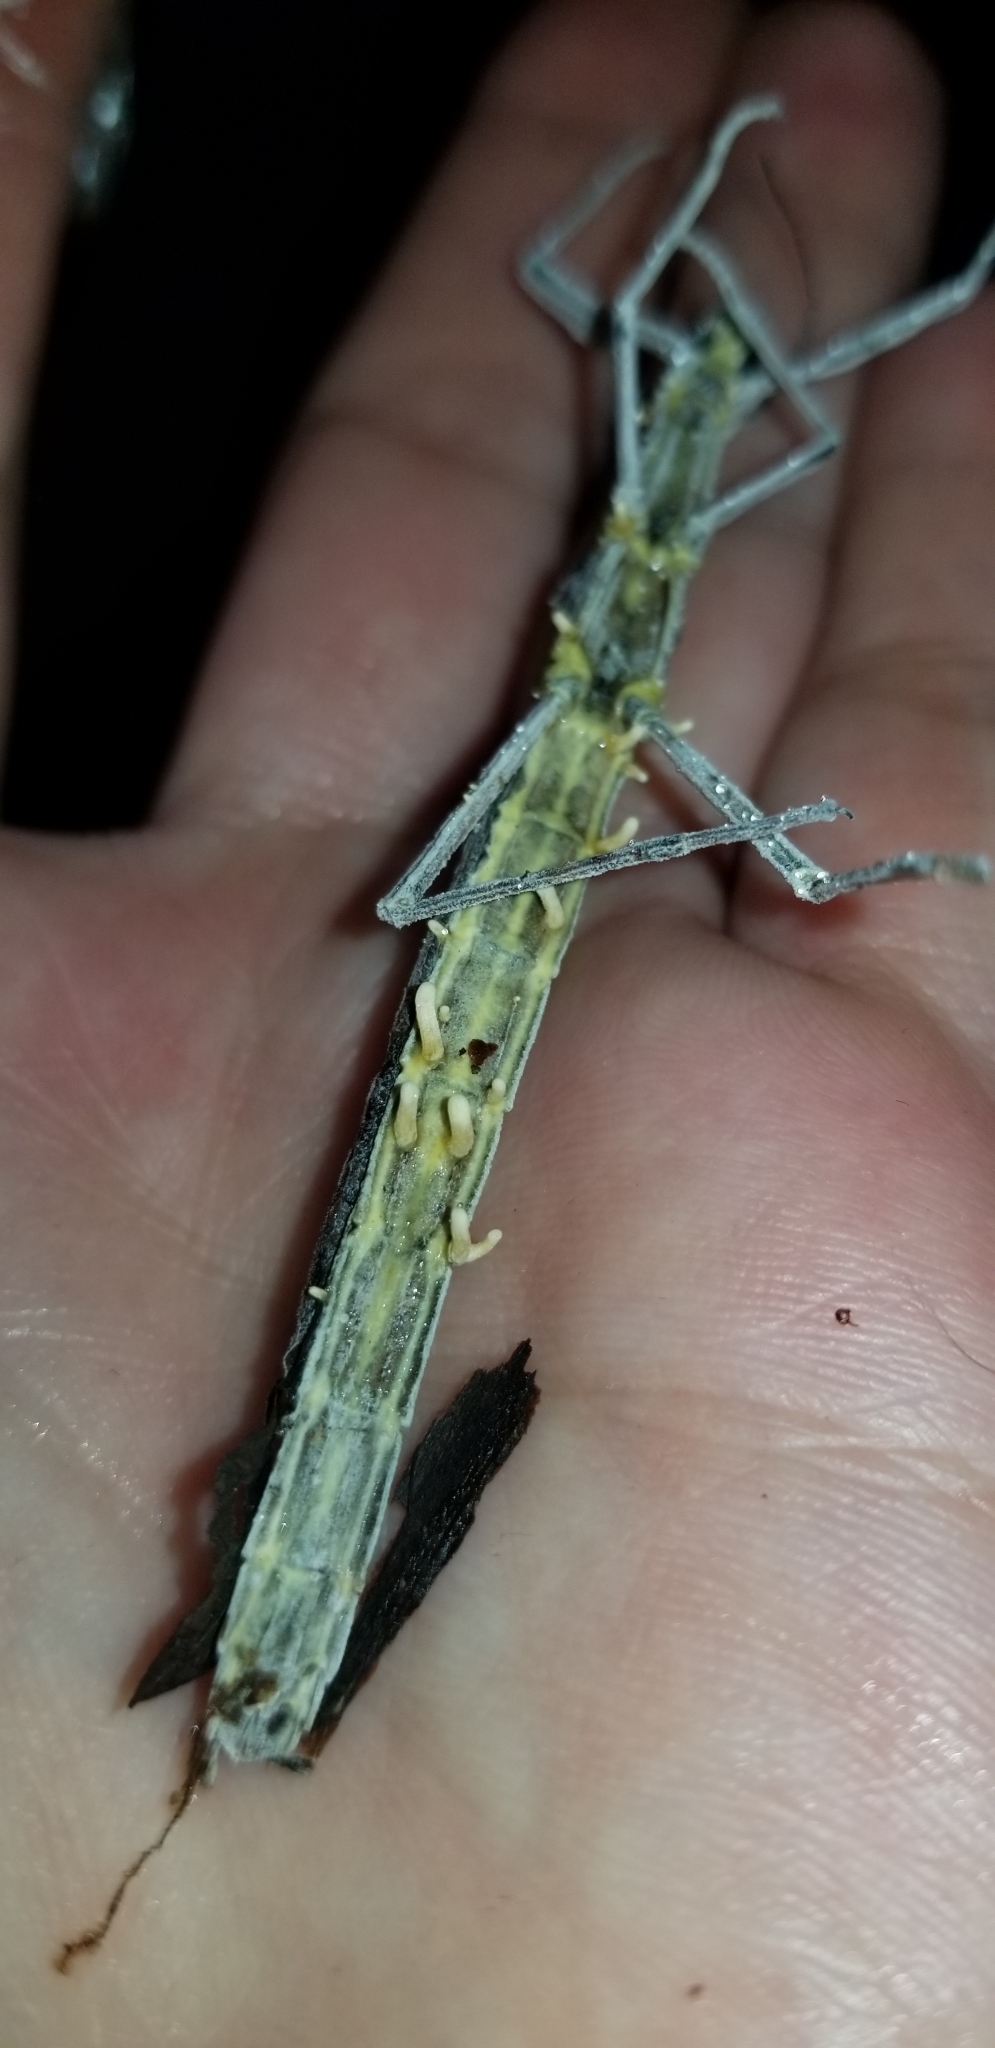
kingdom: Fungi
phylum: Ascomycota
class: Sordariomycetes
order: Hypocreales
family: Cordycipitaceae
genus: Beauveria
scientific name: Beauveria diapheromeriphila
